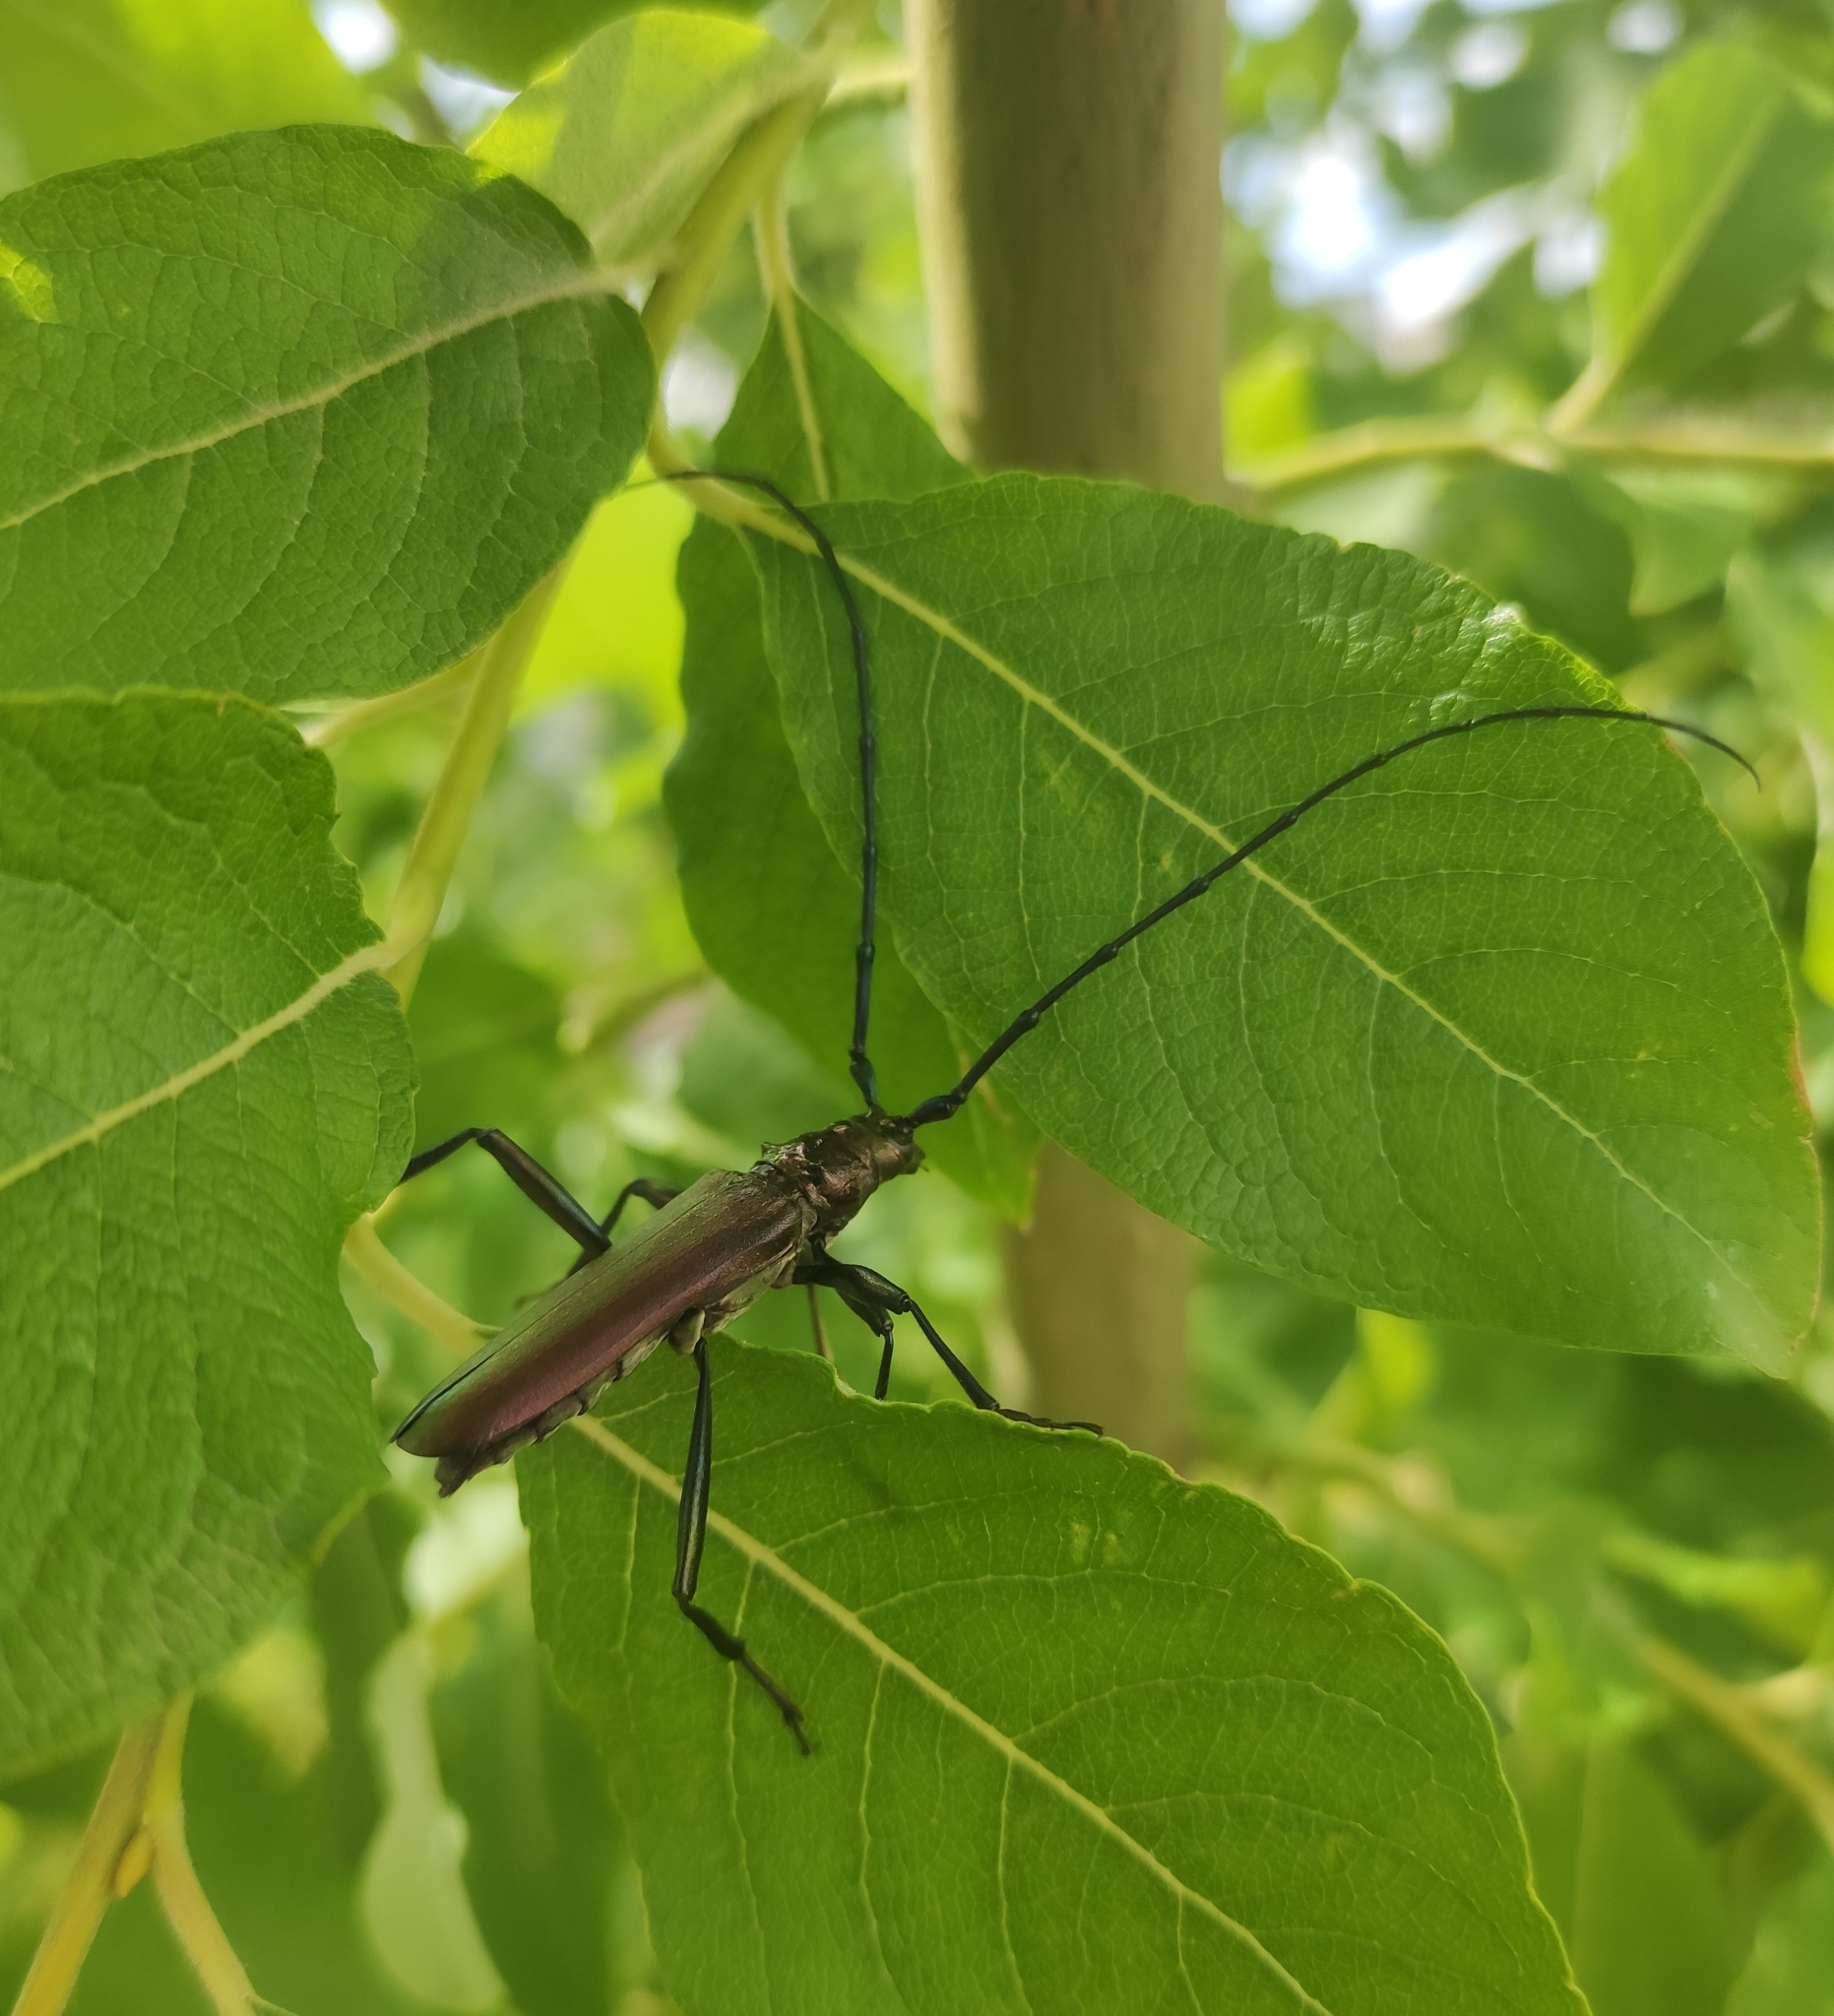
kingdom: Animalia
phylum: Arthropoda
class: Insecta
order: Coleoptera
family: Cerambycidae
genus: Aromia
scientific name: Aromia moschata
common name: Musk beetle
